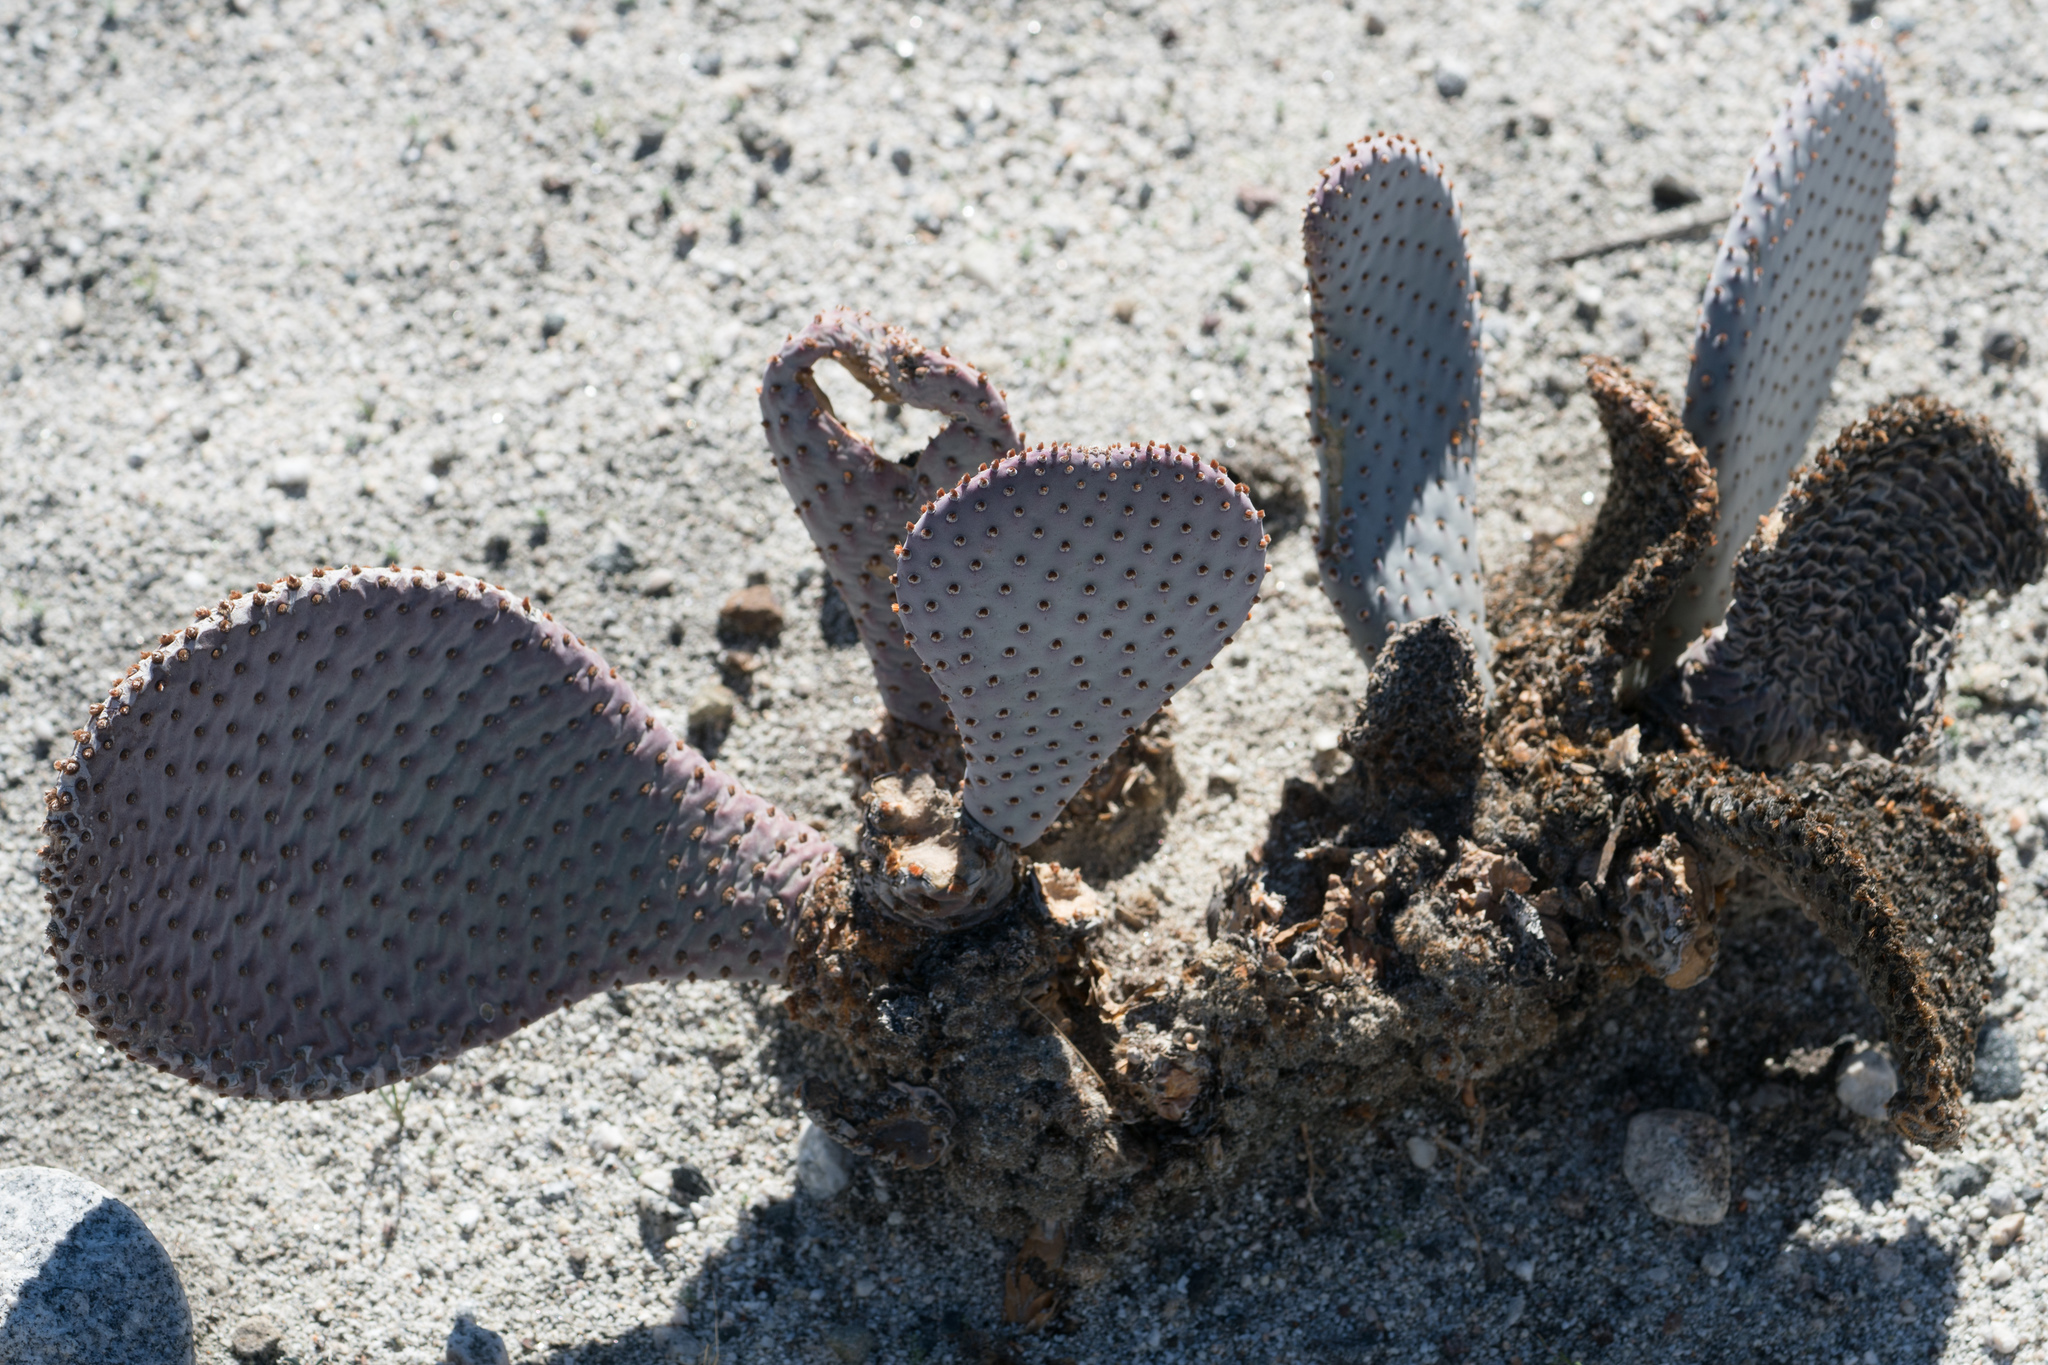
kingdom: Plantae
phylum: Tracheophyta
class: Magnoliopsida
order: Caryophyllales
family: Cactaceae
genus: Opuntia
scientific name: Opuntia basilaris
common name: Beavertail prickly-pear
